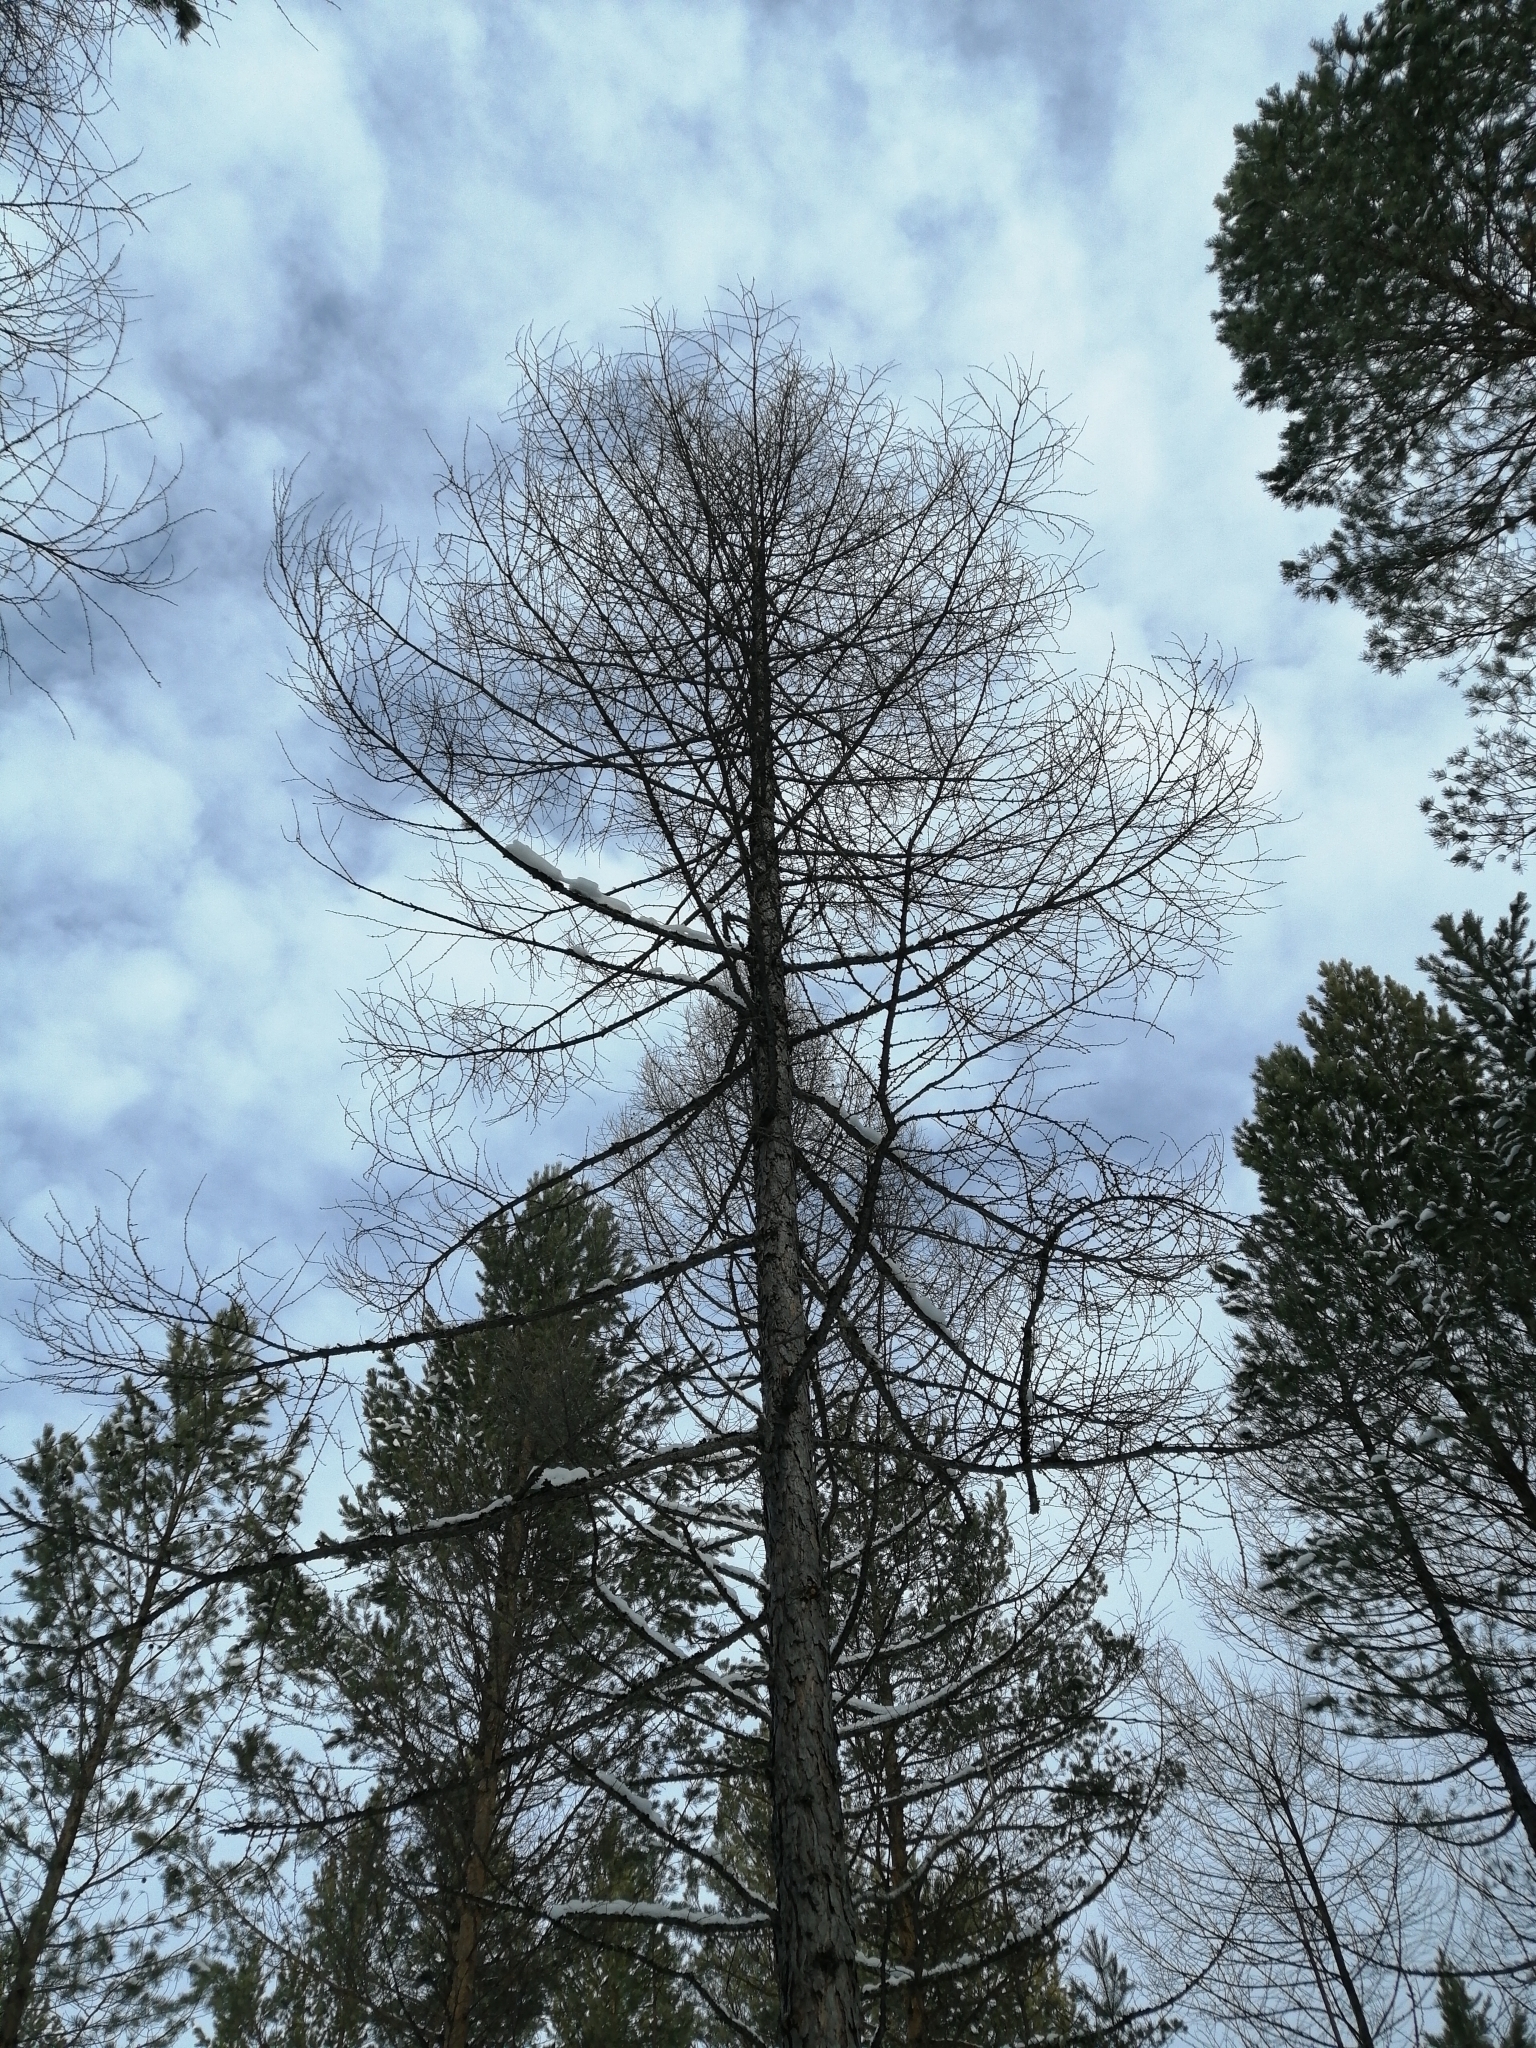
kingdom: Plantae
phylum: Tracheophyta
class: Pinopsida
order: Pinales
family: Pinaceae
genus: Larix
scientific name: Larix sibirica
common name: Siberian larch
